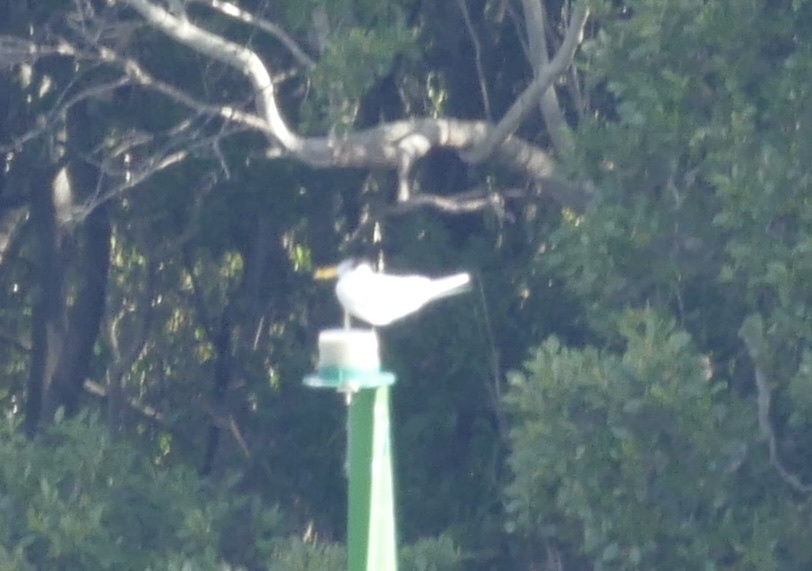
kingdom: Animalia
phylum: Chordata
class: Aves
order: Charadriiformes
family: Laridae
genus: Thalasseus
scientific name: Thalasseus bergii
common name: Greater crested tern
